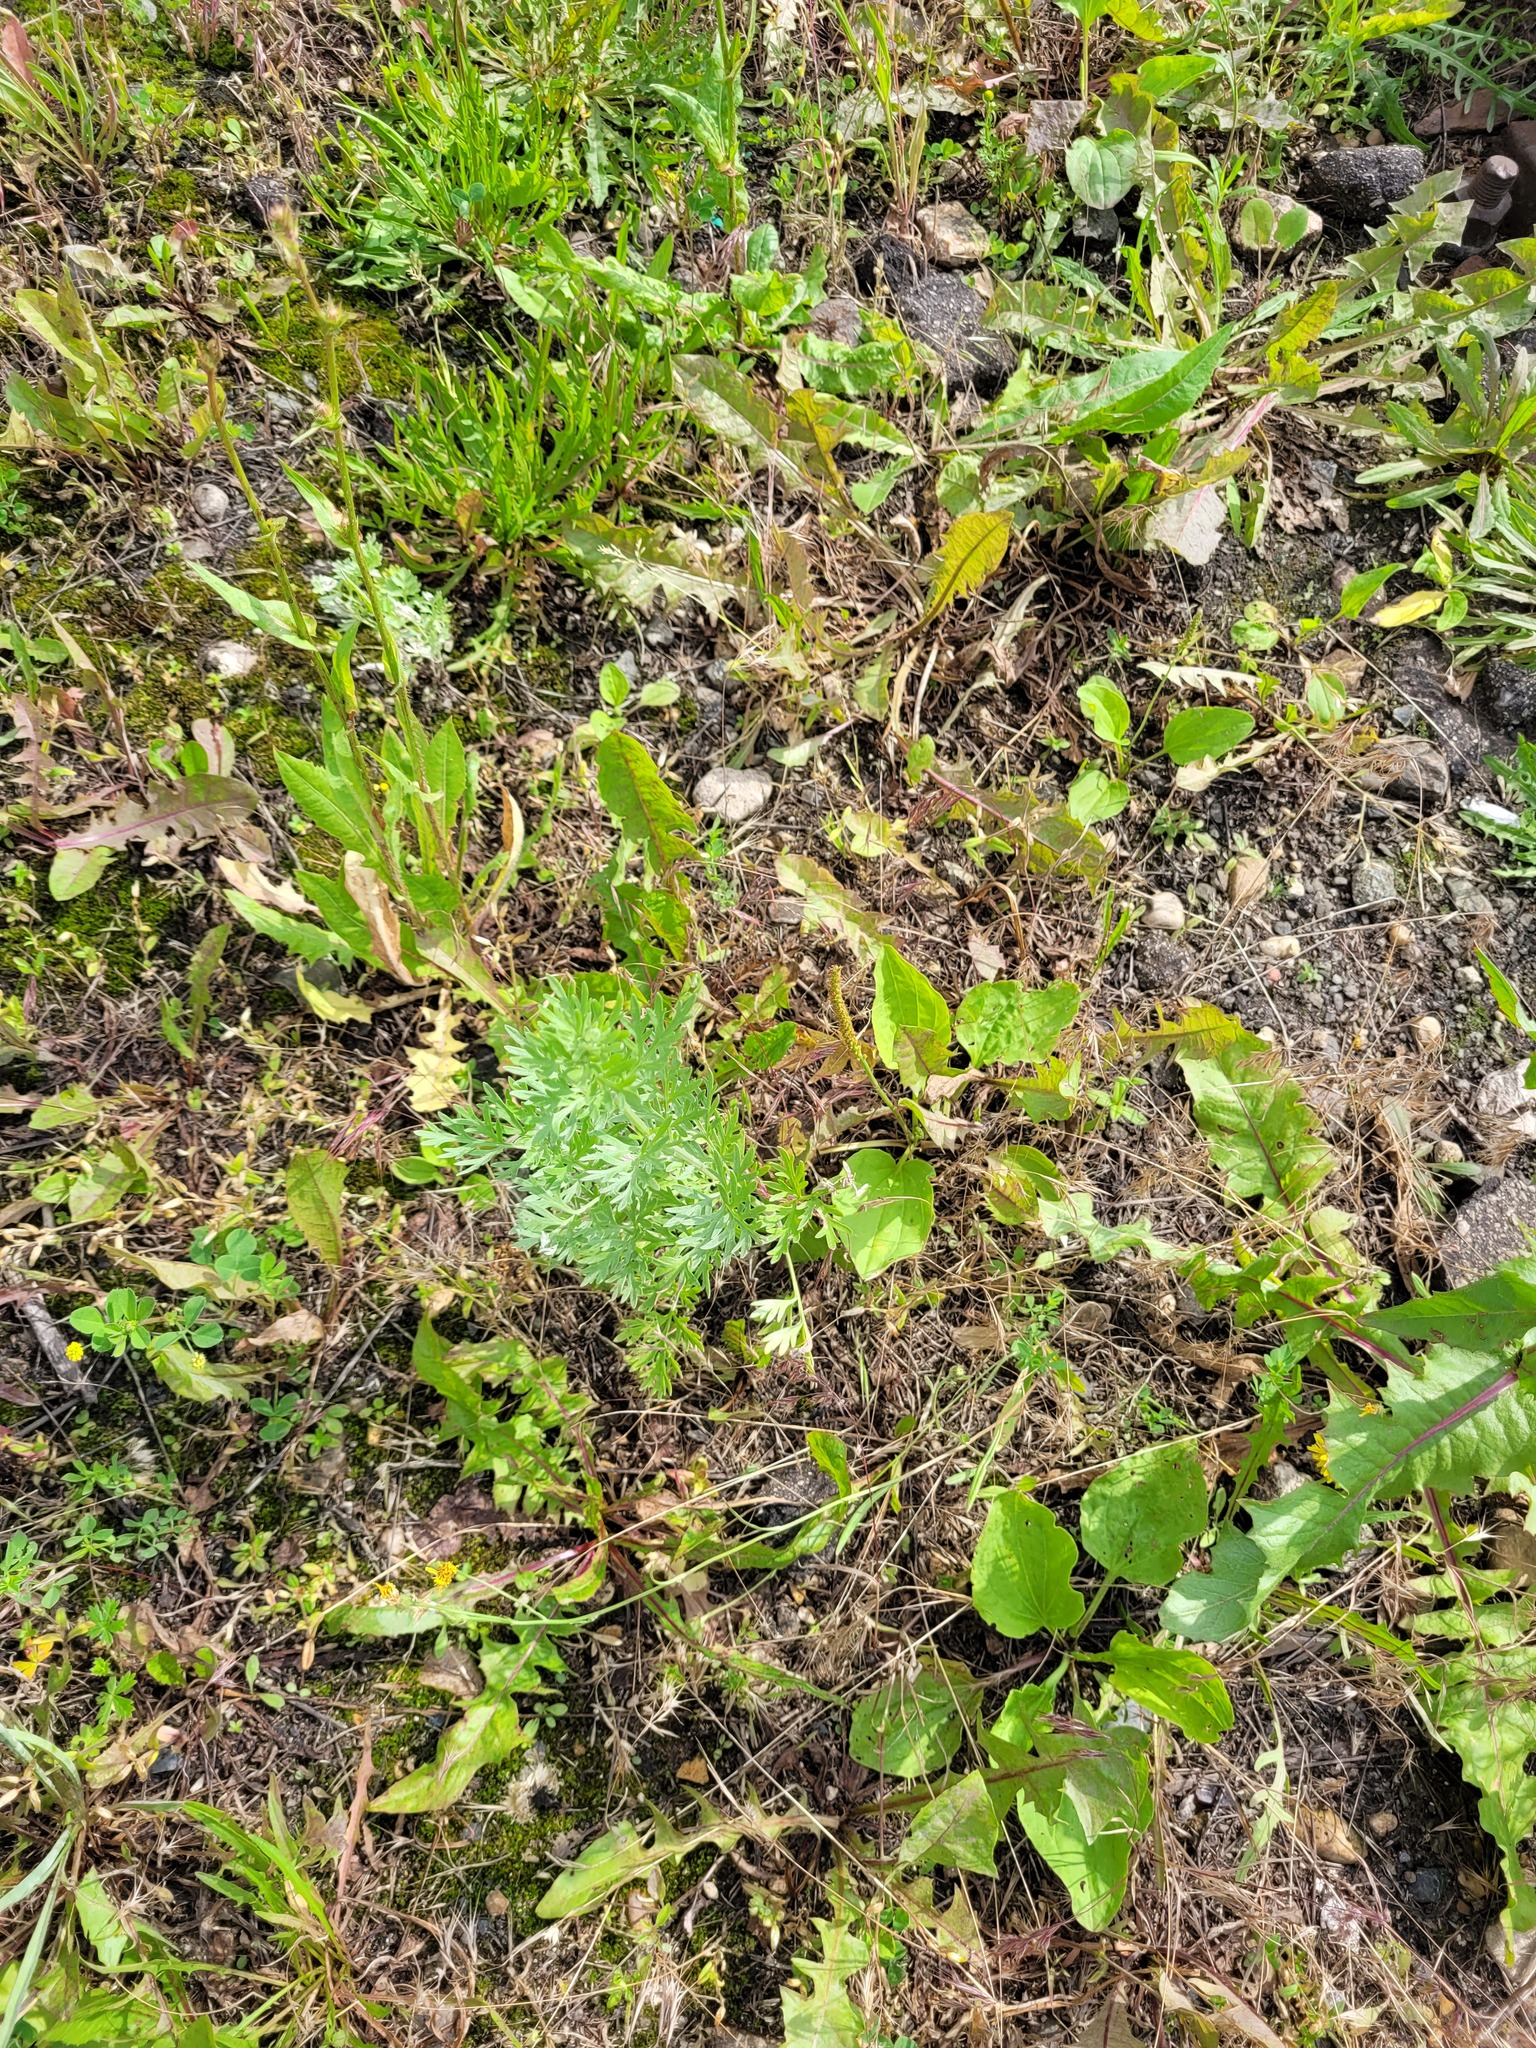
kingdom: Plantae
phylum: Tracheophyta
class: Magnoliopsida
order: Asterales
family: Asteraceae
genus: Artemisia
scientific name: Artemisia absinthium
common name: Wormwood
